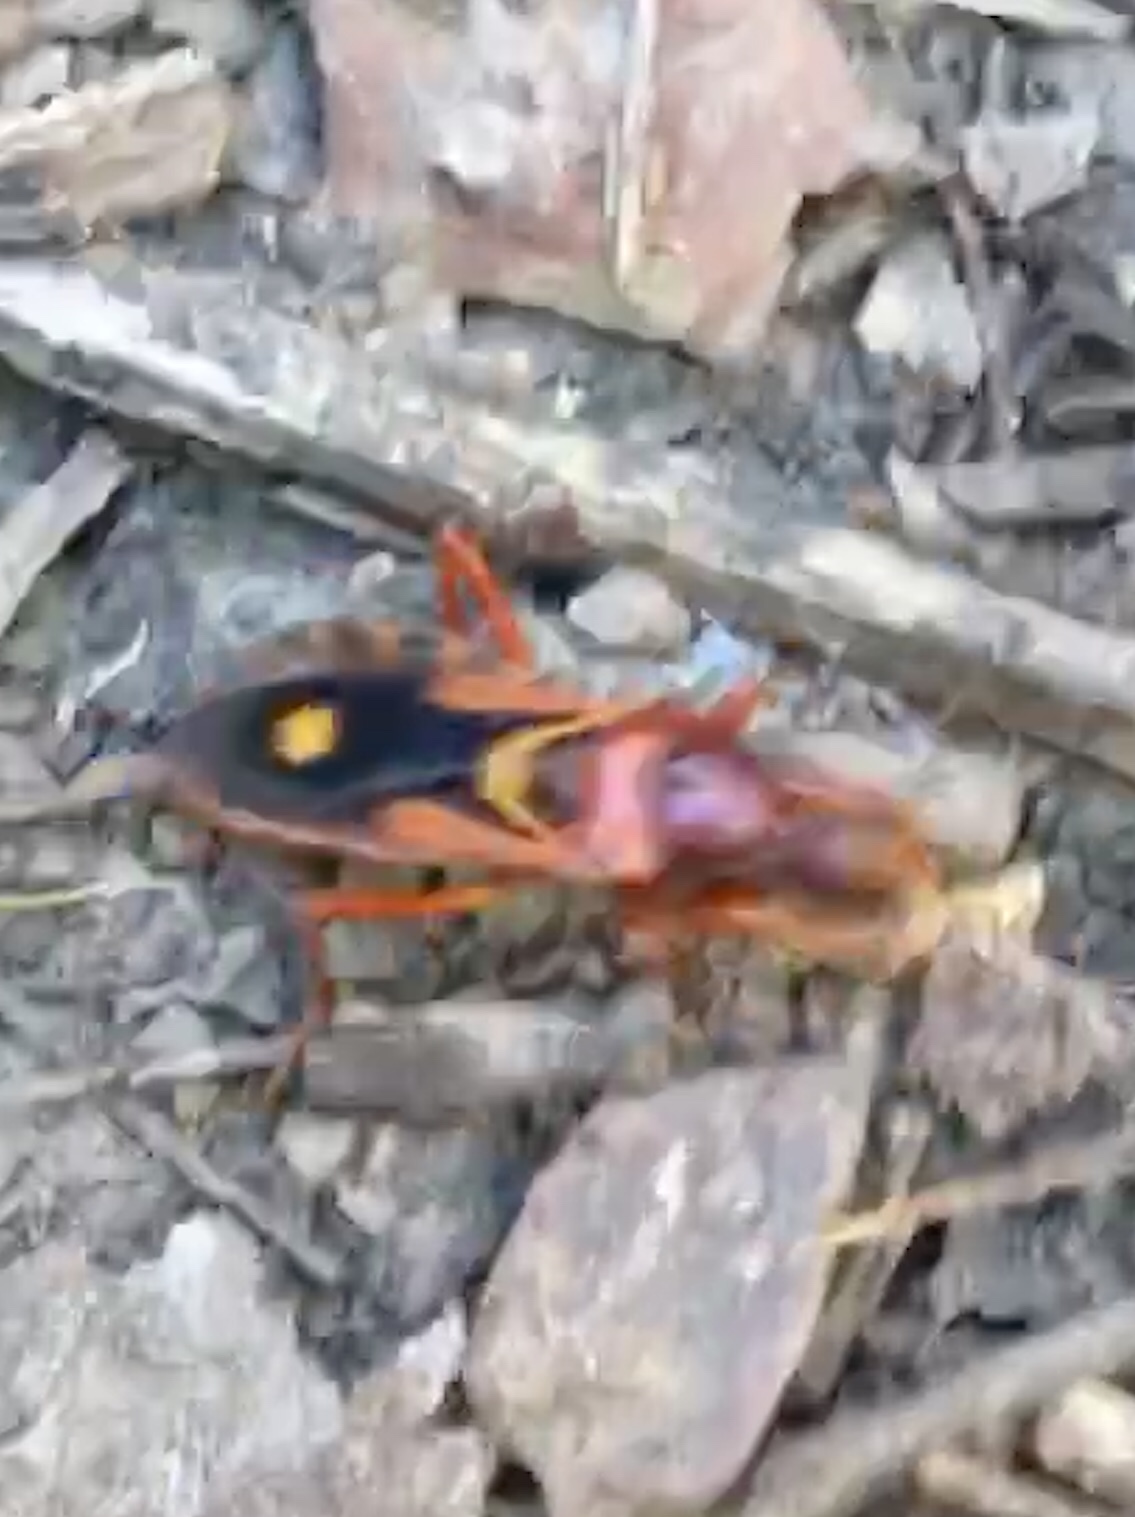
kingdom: Animalia
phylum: Arthropoda
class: Insecta
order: Hemiptera
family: Reduviidae
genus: Rasahus
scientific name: Rasahus thoracicus
